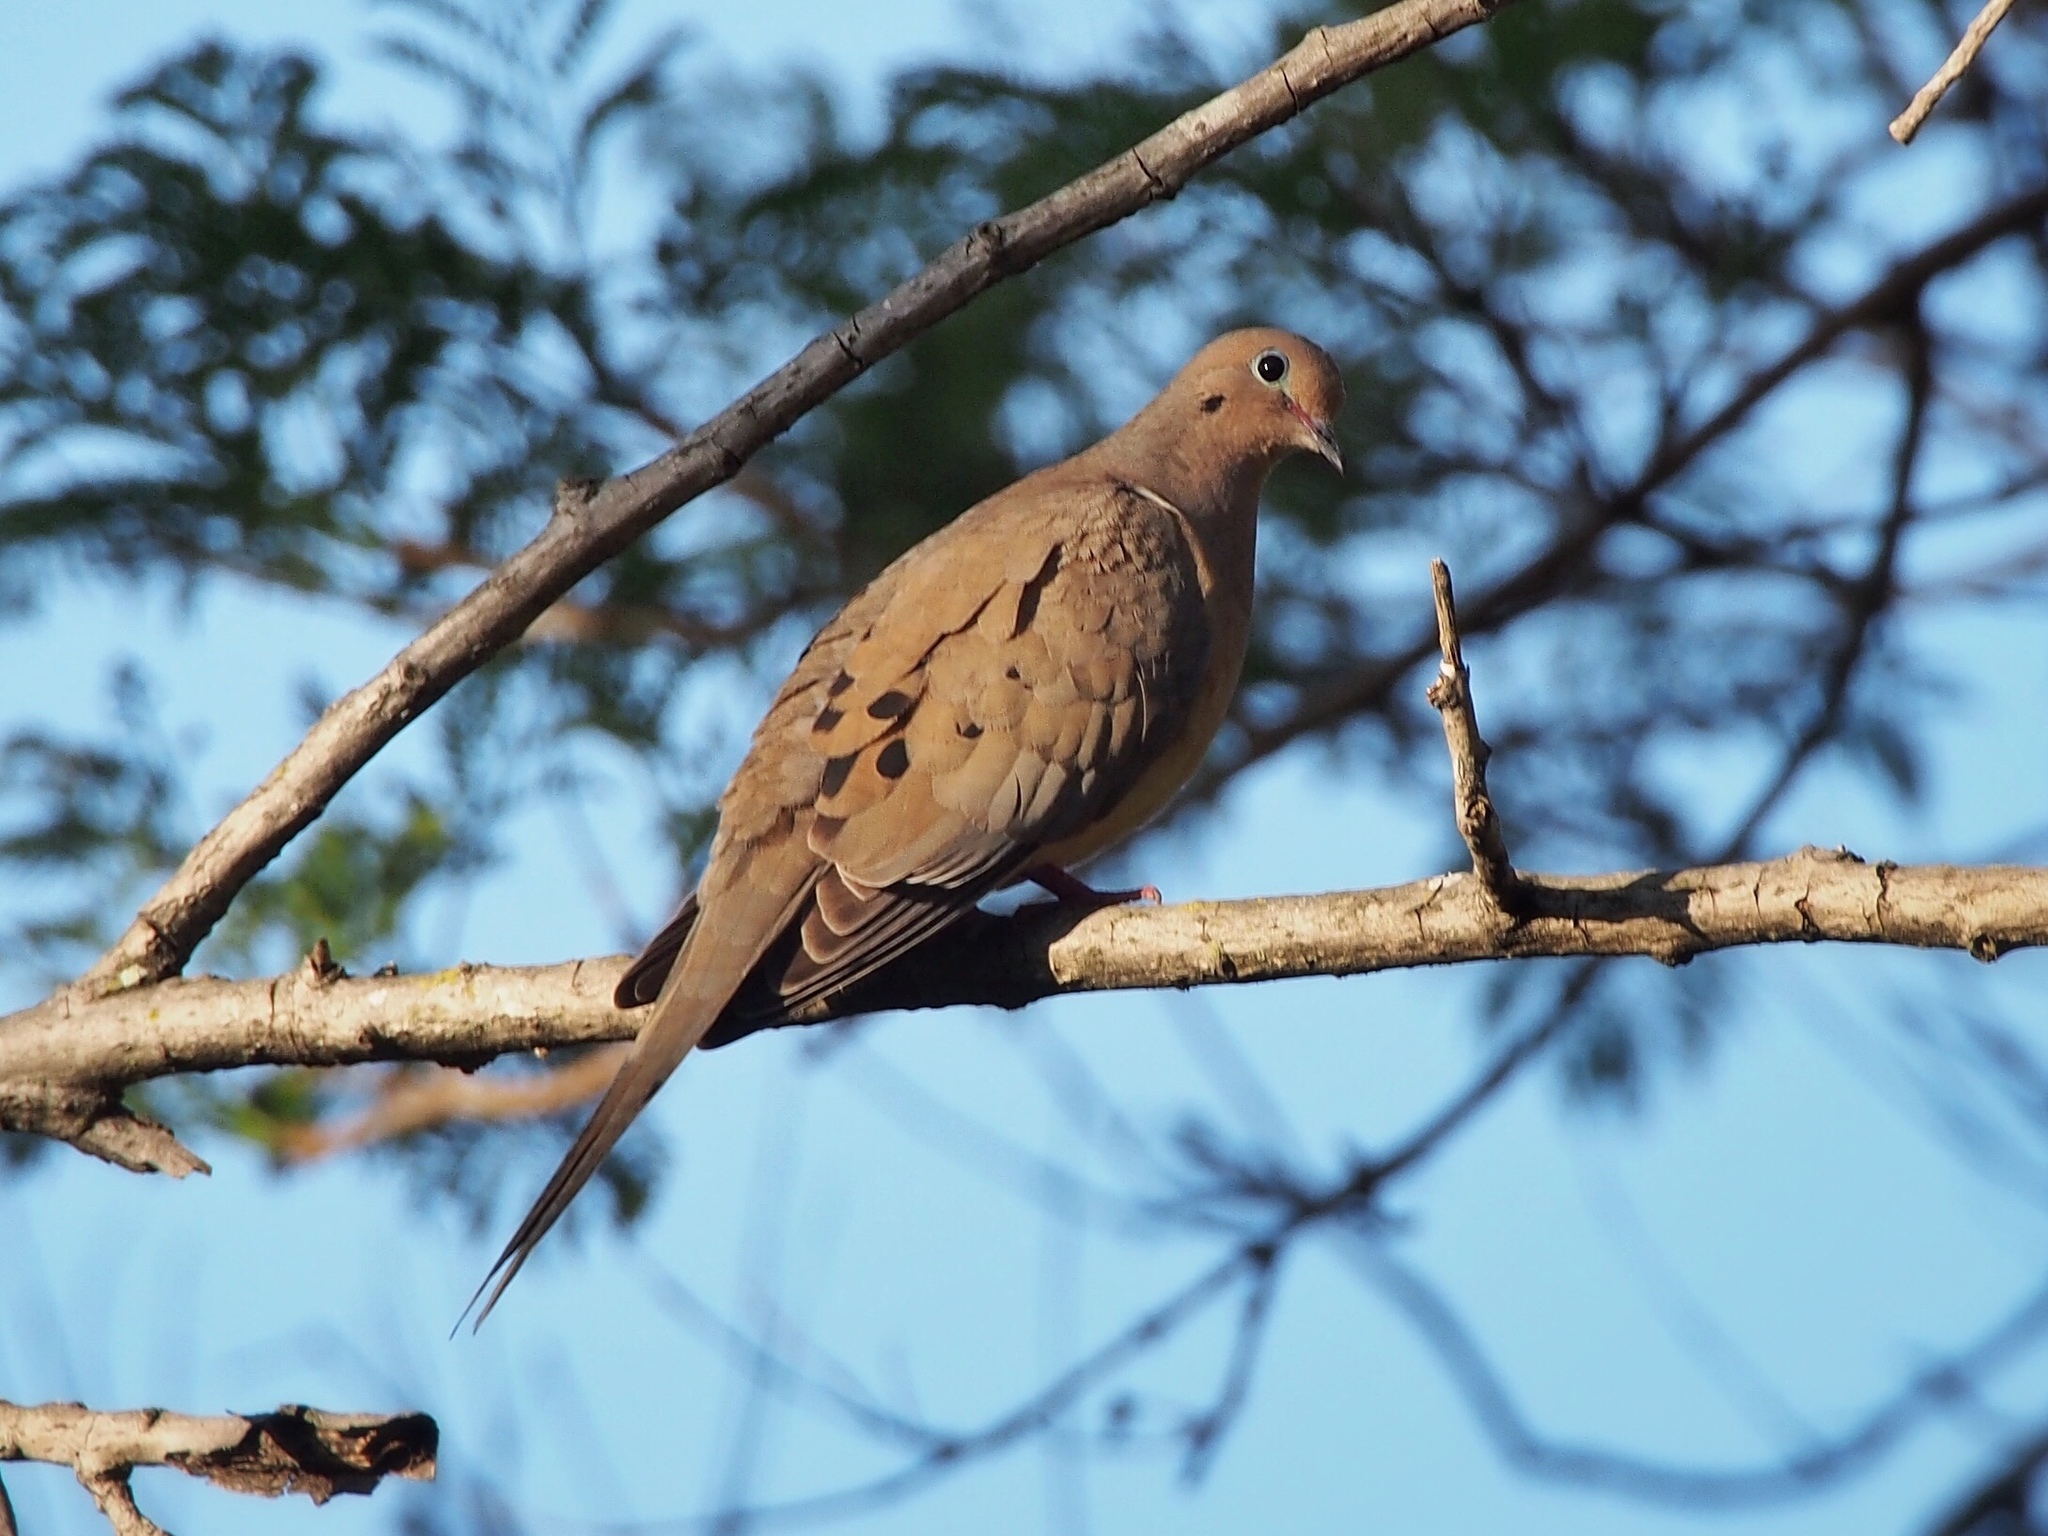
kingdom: Animalia
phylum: Chordata
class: Aves
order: Columbiformes
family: Columbidae
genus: Zenaida
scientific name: Zenaida macroura
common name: Mourning dove
